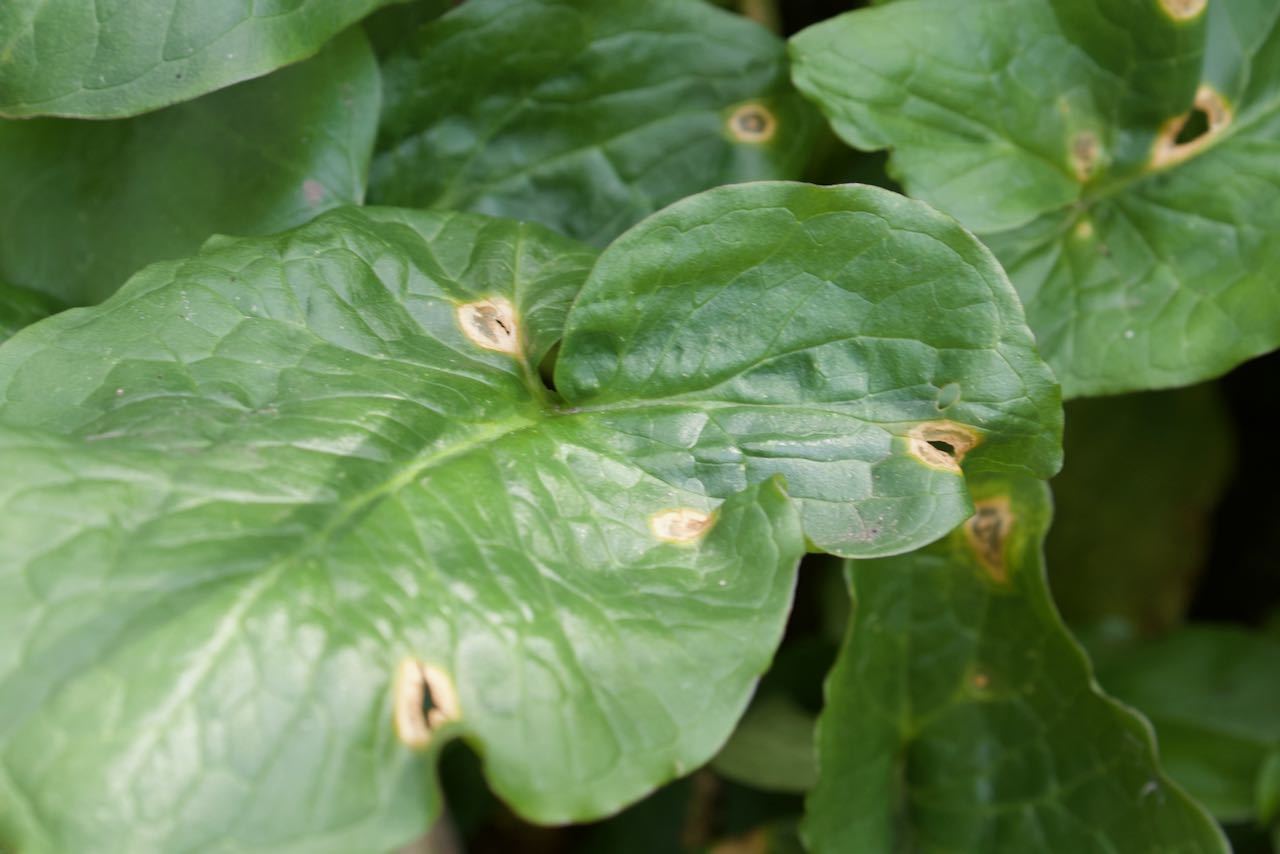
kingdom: Chromista
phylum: Ochrophyta
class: Xanthophyceae
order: Phyllosiphonales
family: Phyllosiphonaceae
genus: Phyllosiphon
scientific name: Phyllosiphon
